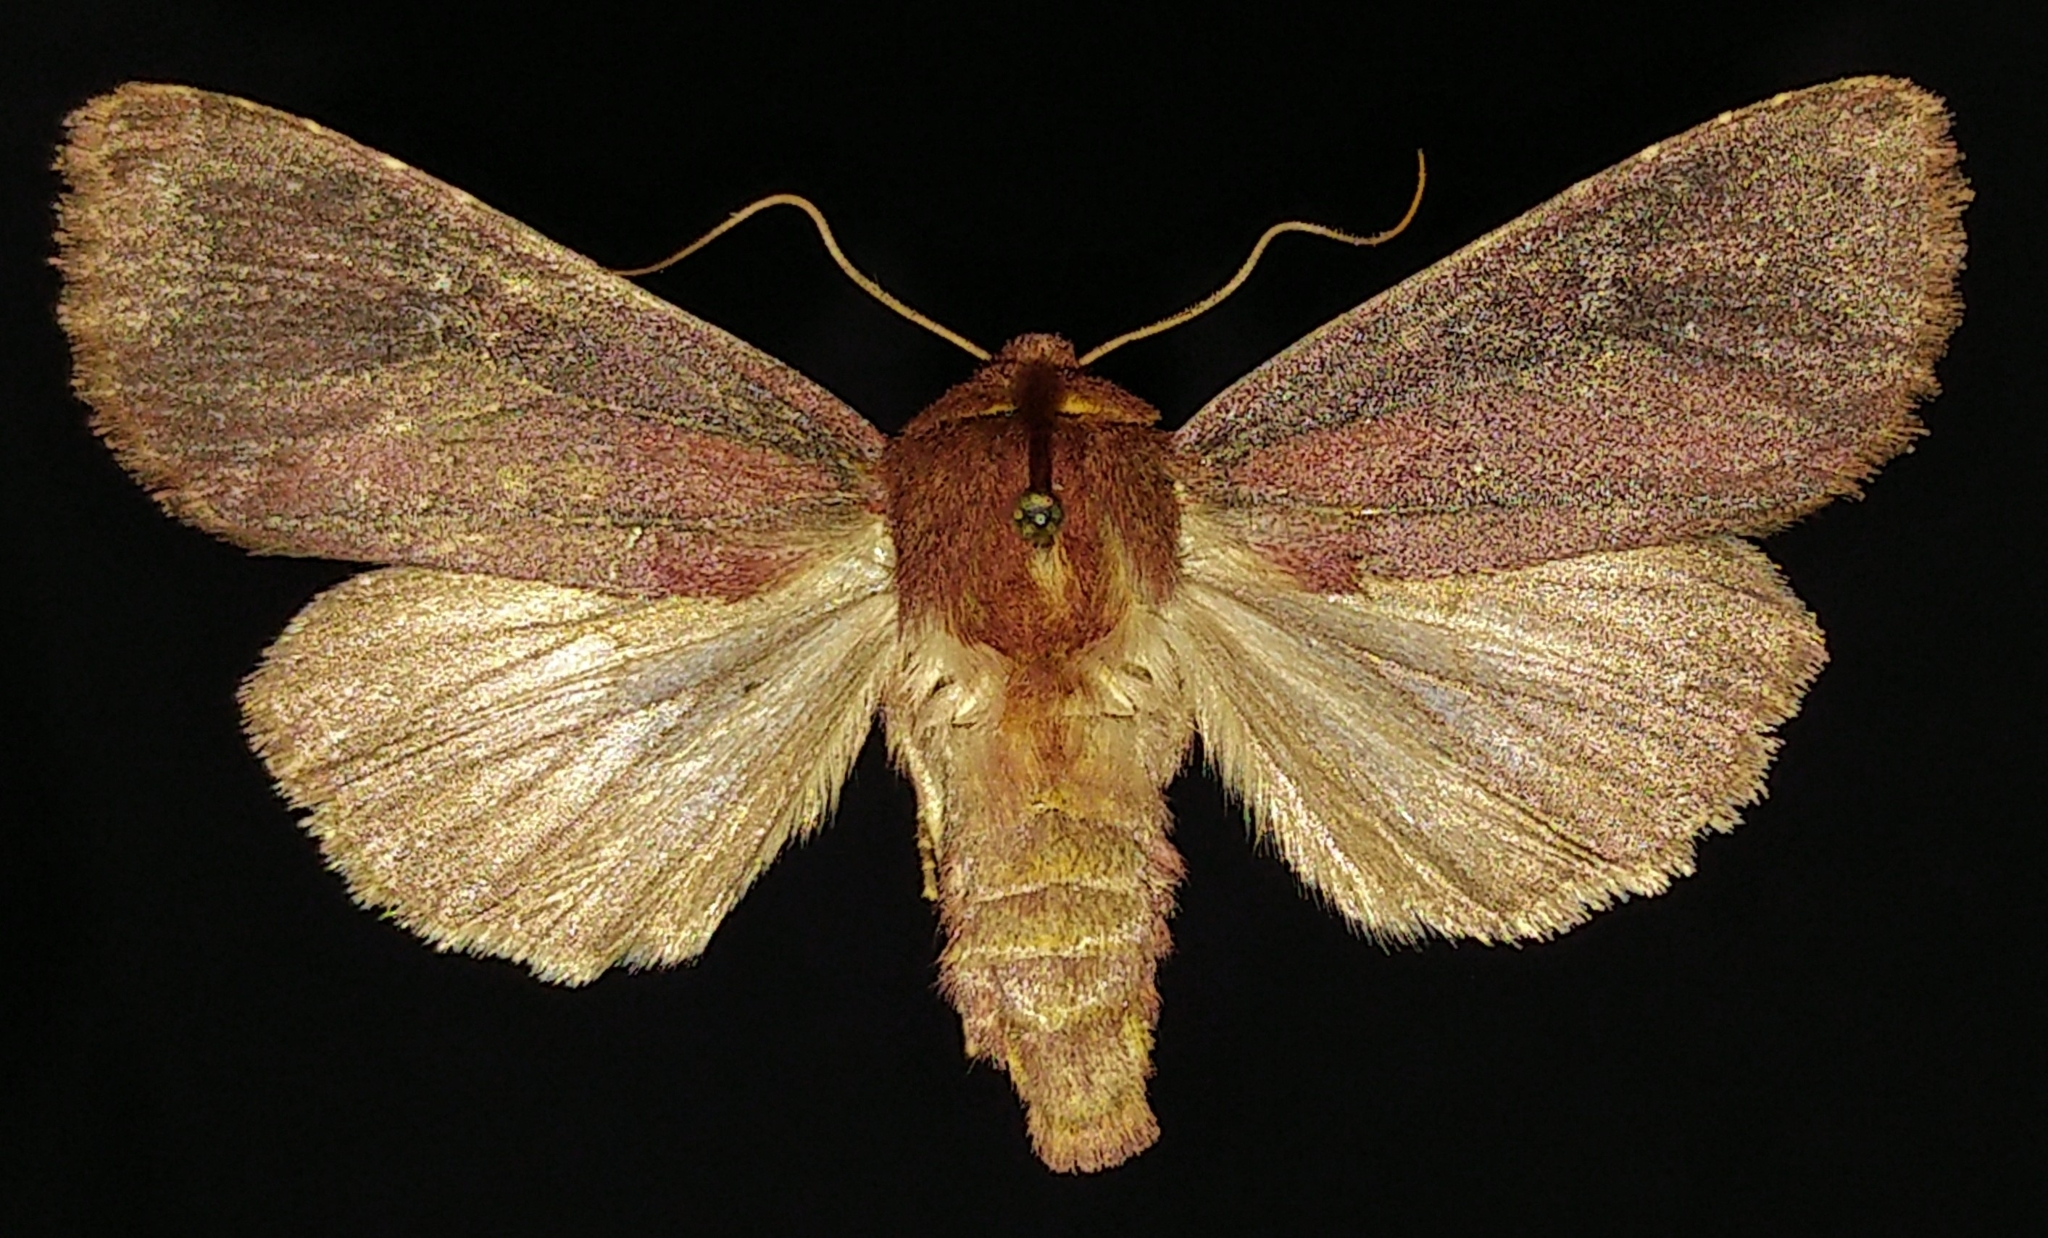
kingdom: Animalia
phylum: Arthropoda
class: Insecta
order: Lepidoptera
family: Noctuidae
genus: Sideridis
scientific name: Sideridis maryx
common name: Maroonwing moth
